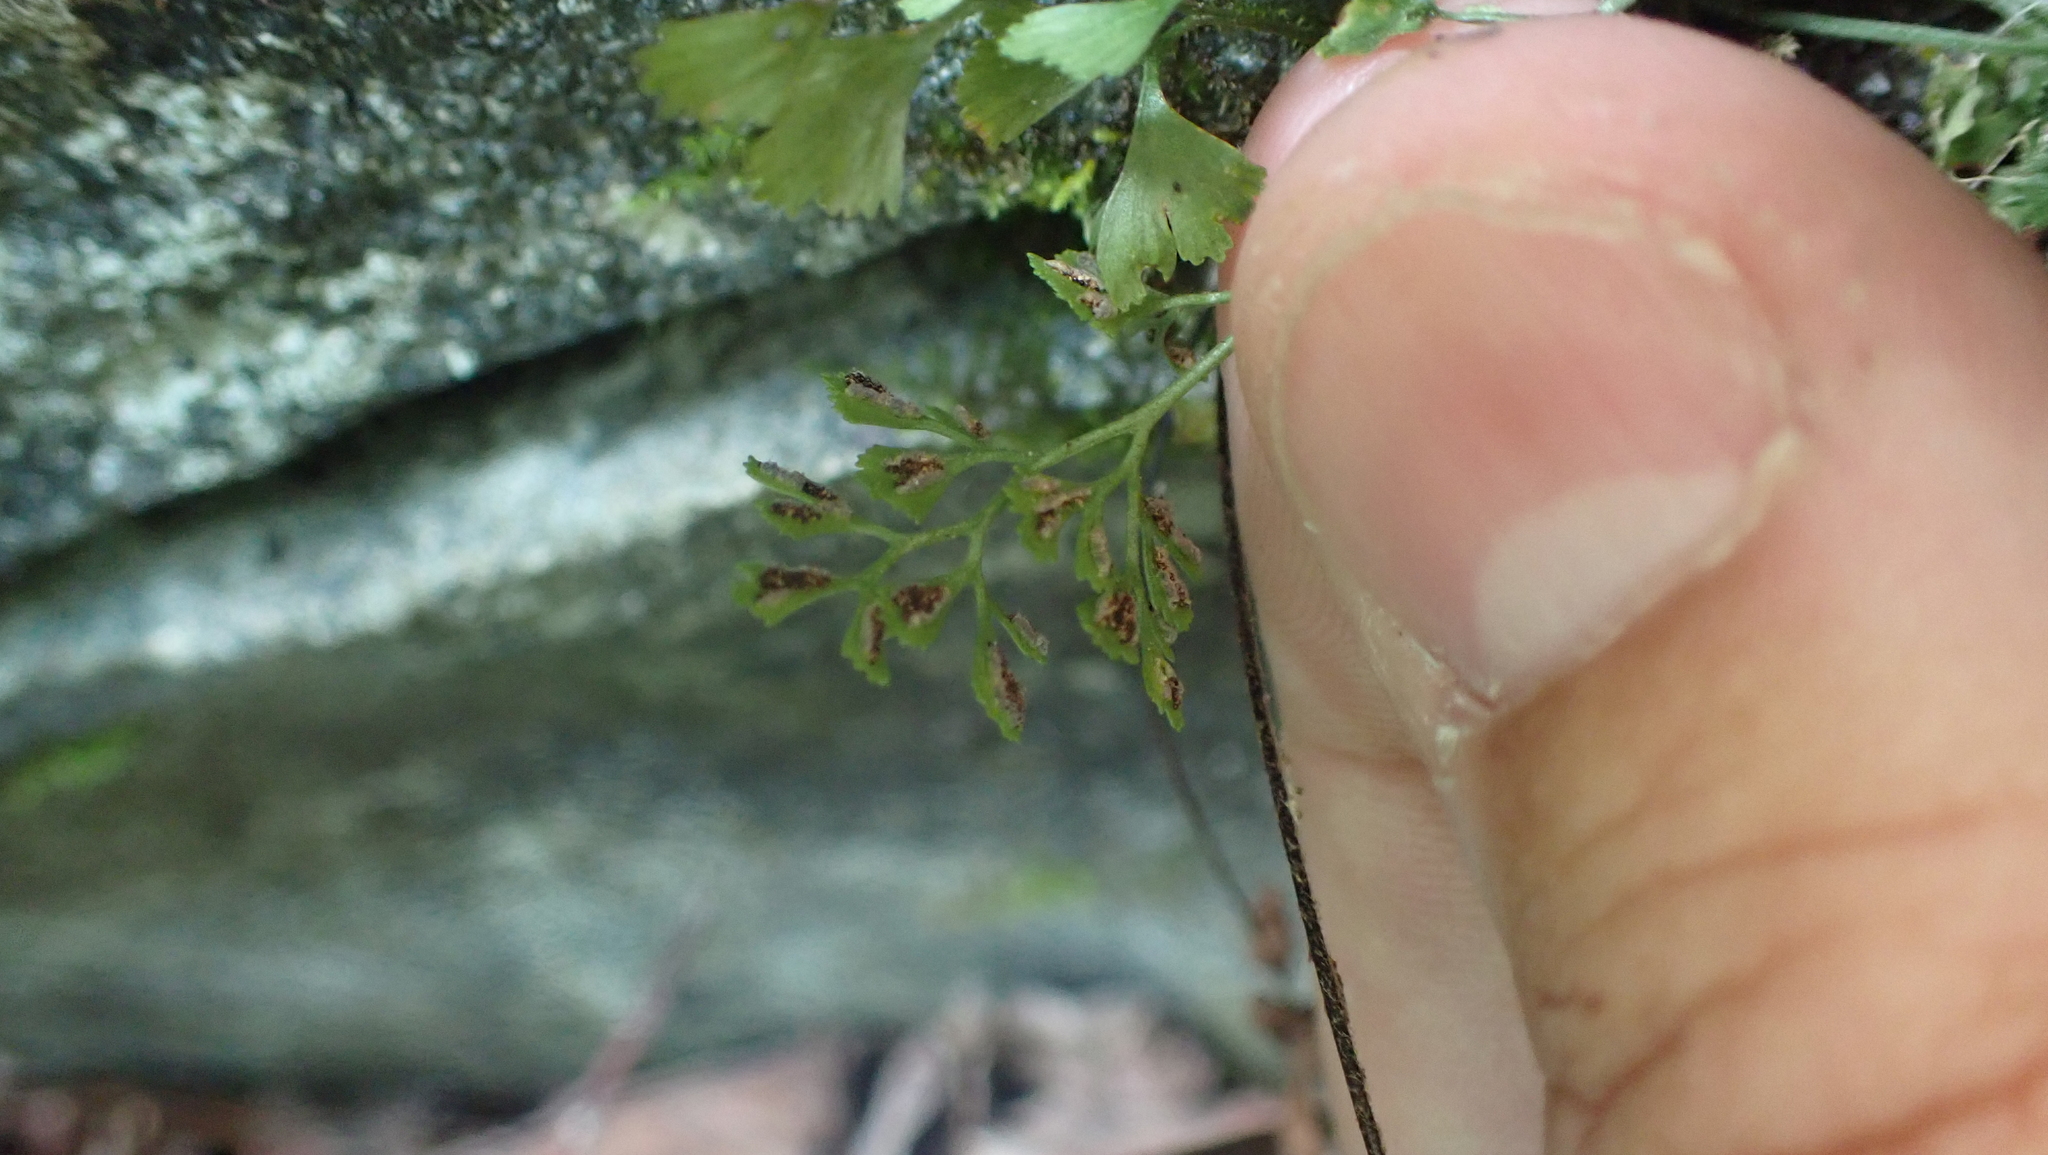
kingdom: Plantae
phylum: Tracheophyta
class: Polypodiopsida
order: Polypodiales
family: Aspleniaceae
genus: Asplenium
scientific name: Asplenium ruta-muraria
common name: Wall-rue
